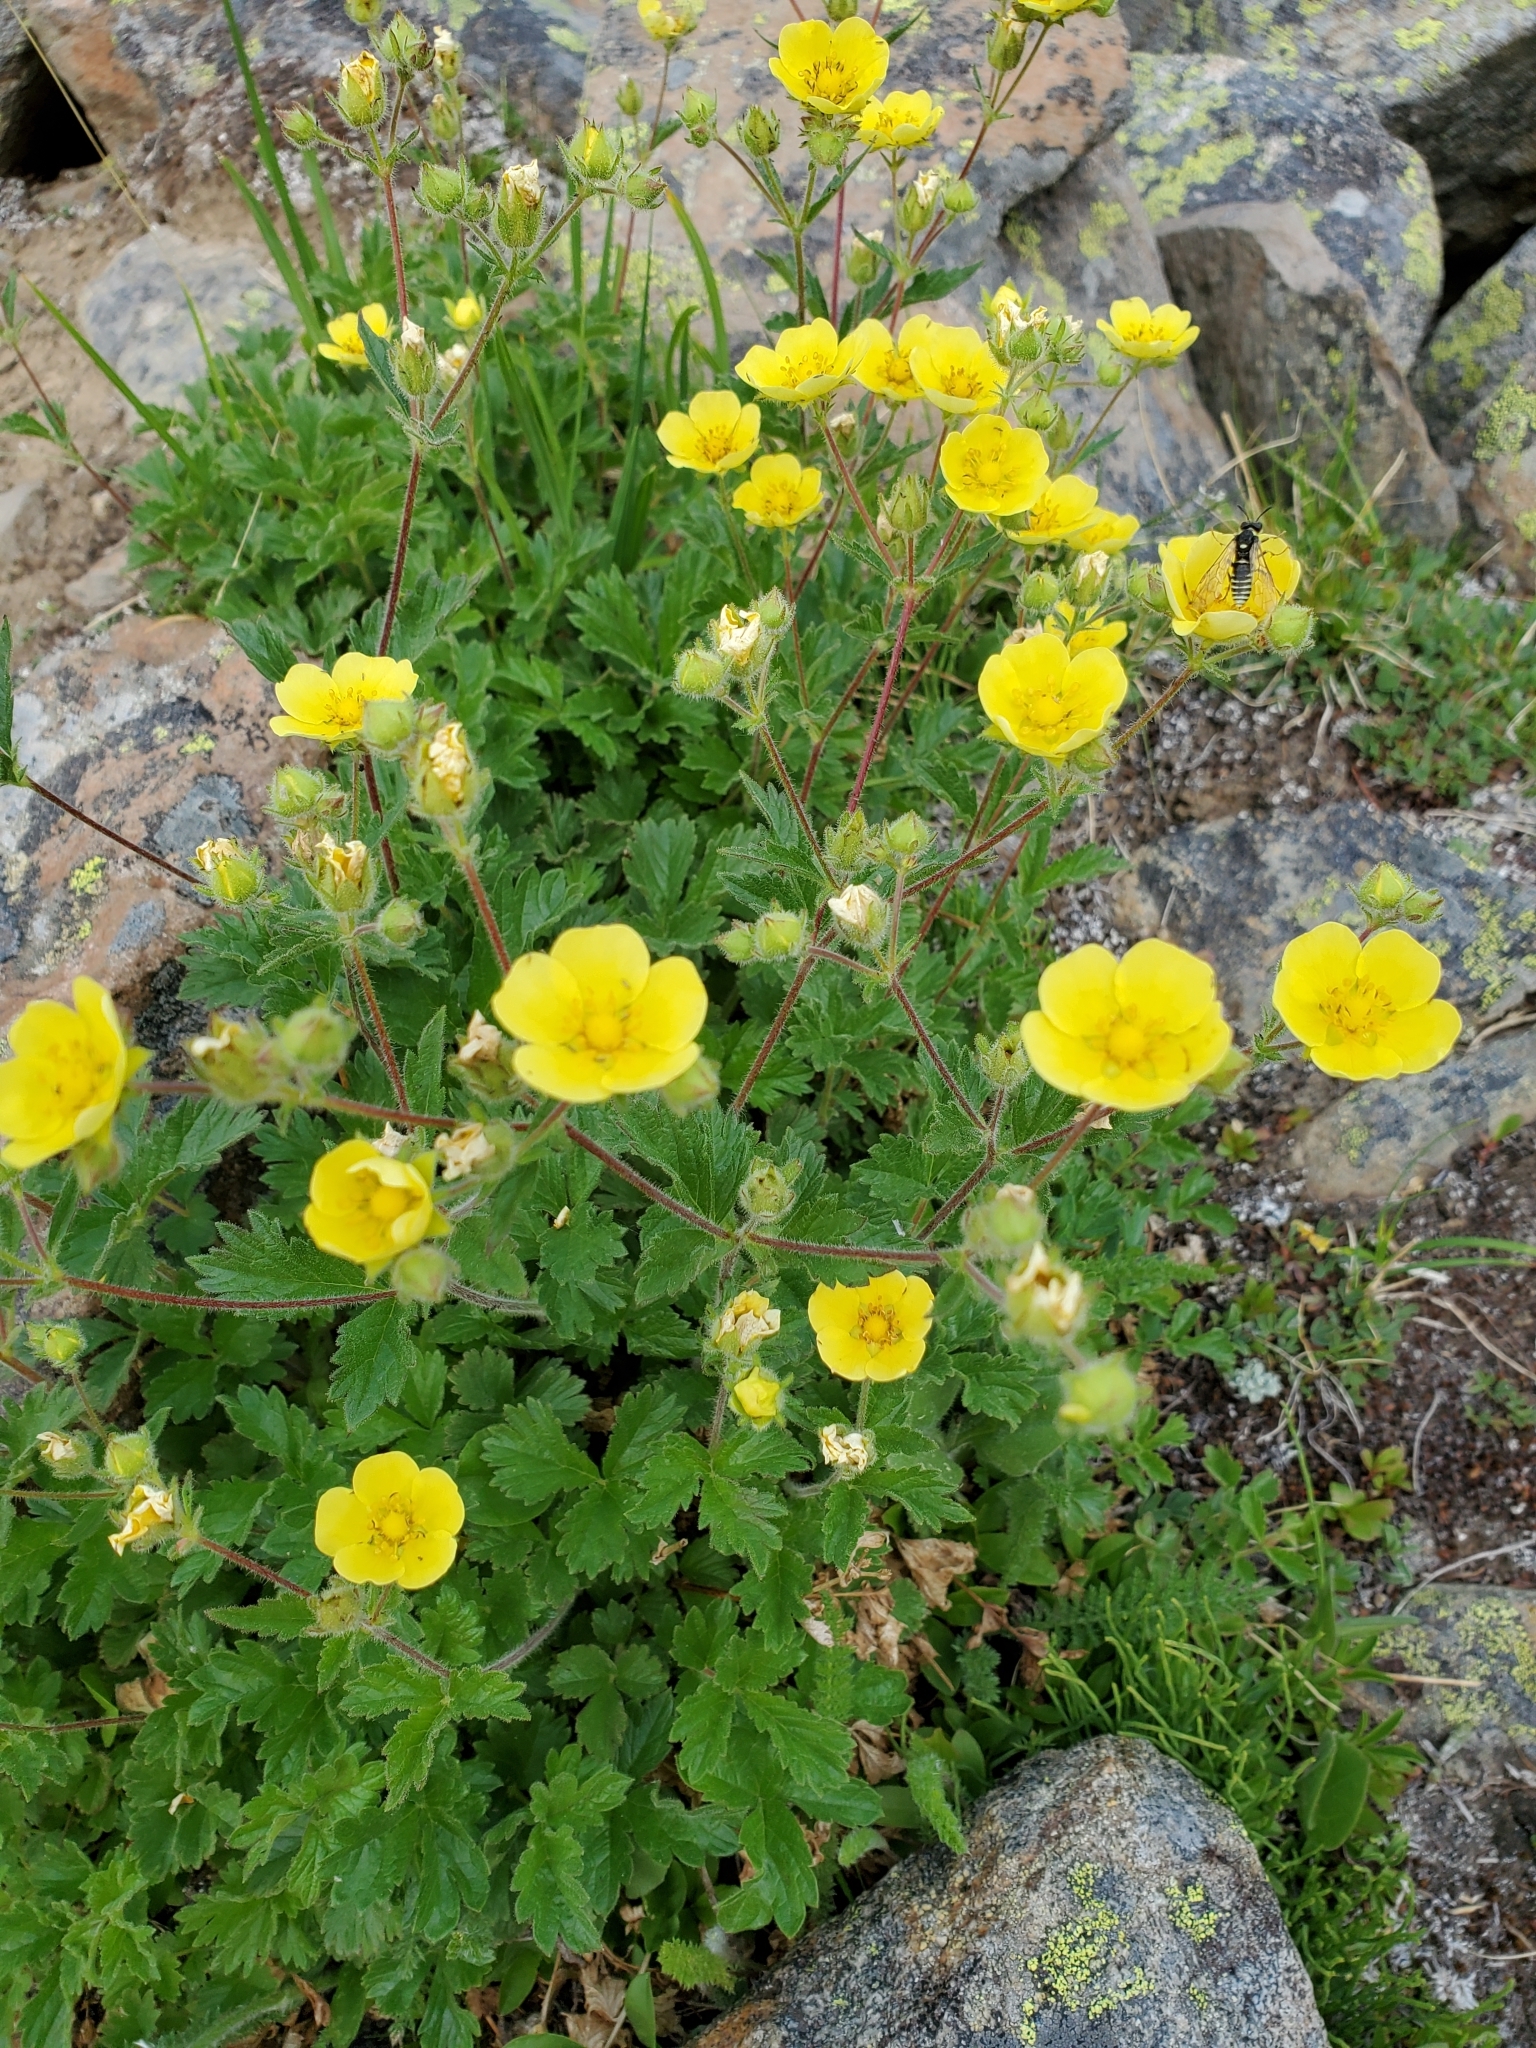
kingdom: Plantae
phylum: Tracheophyta
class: Magnoliopsida
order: Rosales
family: Rosaceae
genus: Potentilla
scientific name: Potentilla flabellifolia
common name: Mount rainier cinquefoil
